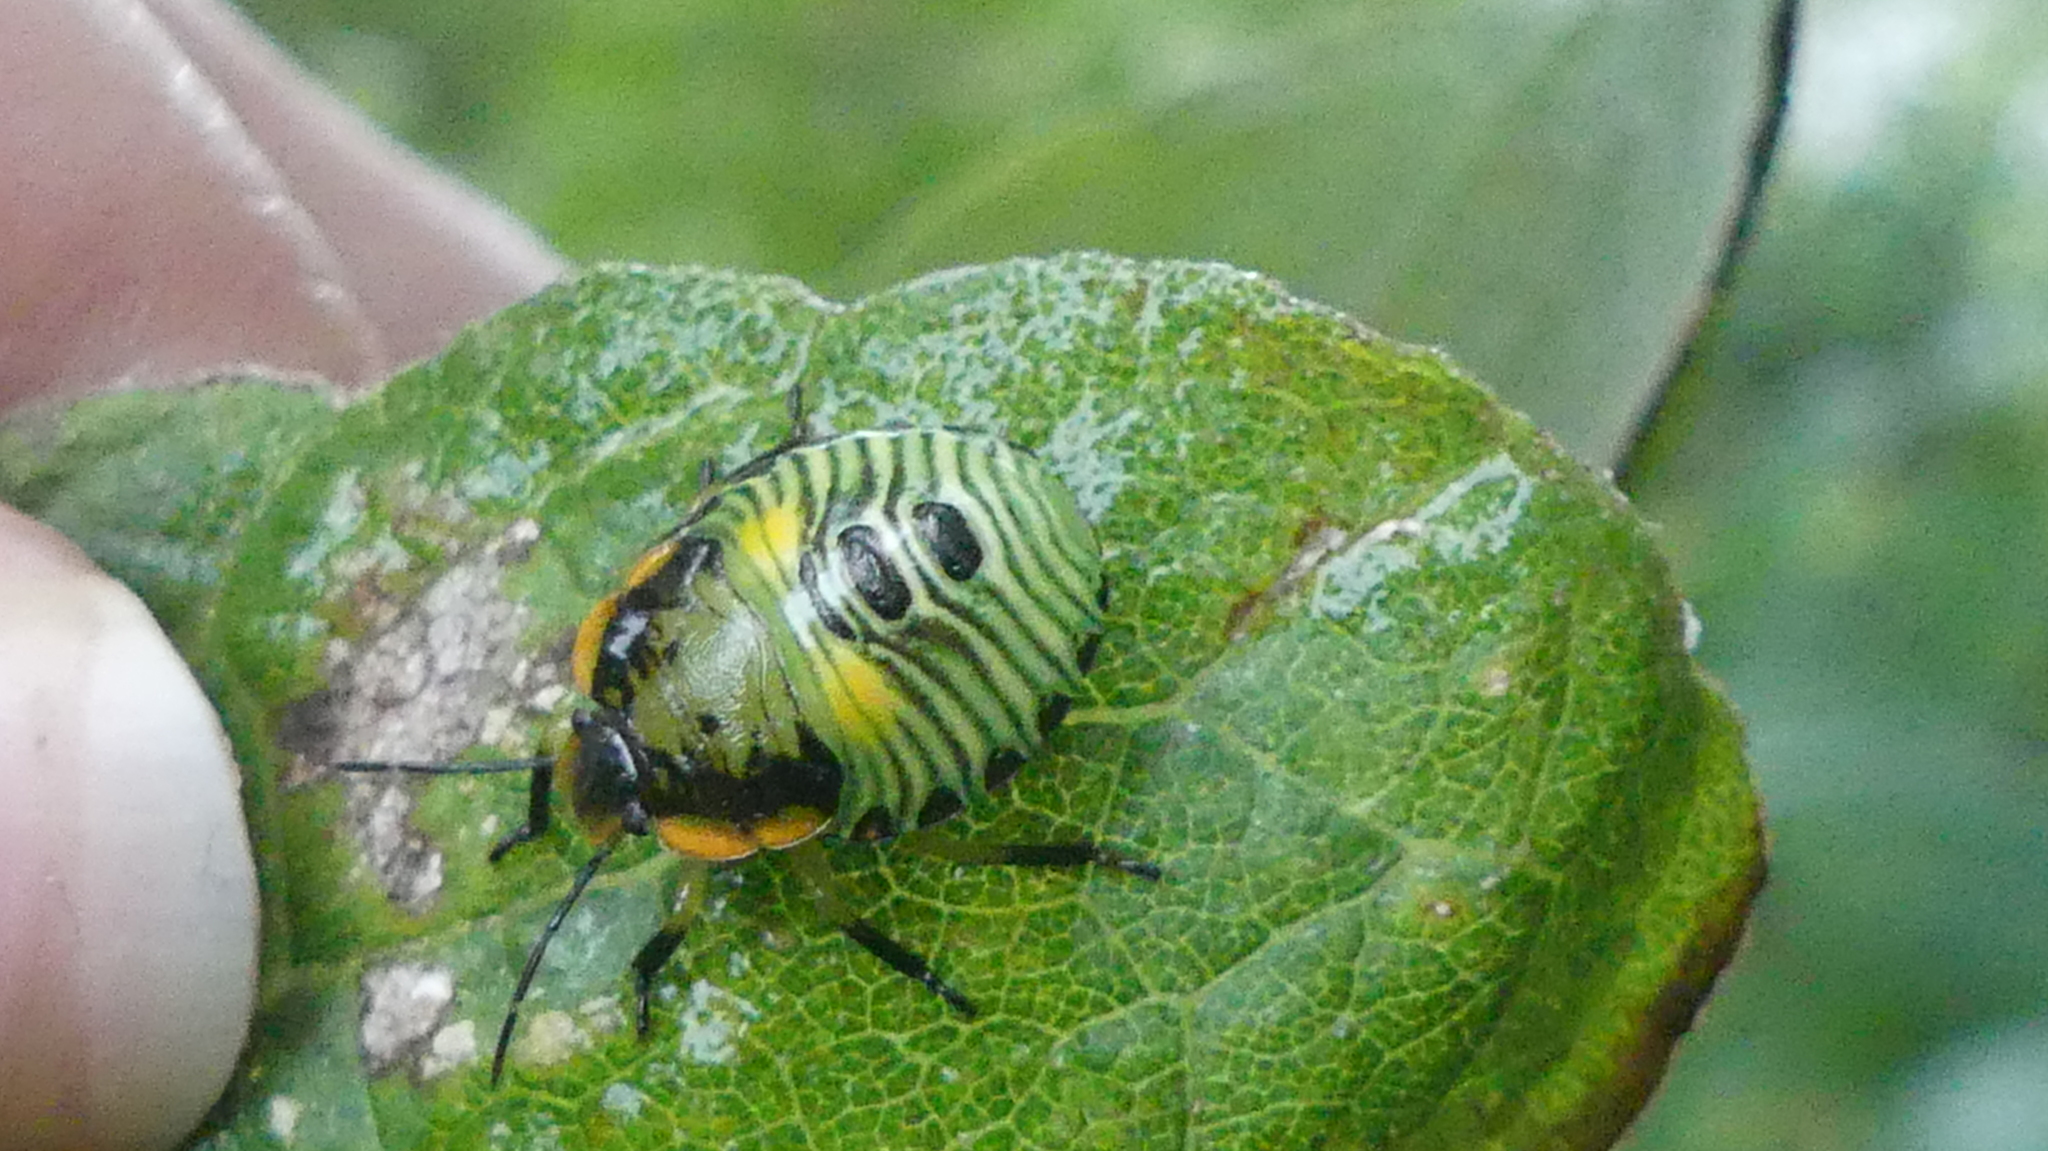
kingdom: Animalia
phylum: Arthropoda
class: Insecta
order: Hemiptera
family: Pentatomidae
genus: Chinavia
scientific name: Chinavia hilaris
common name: Green stink bug
